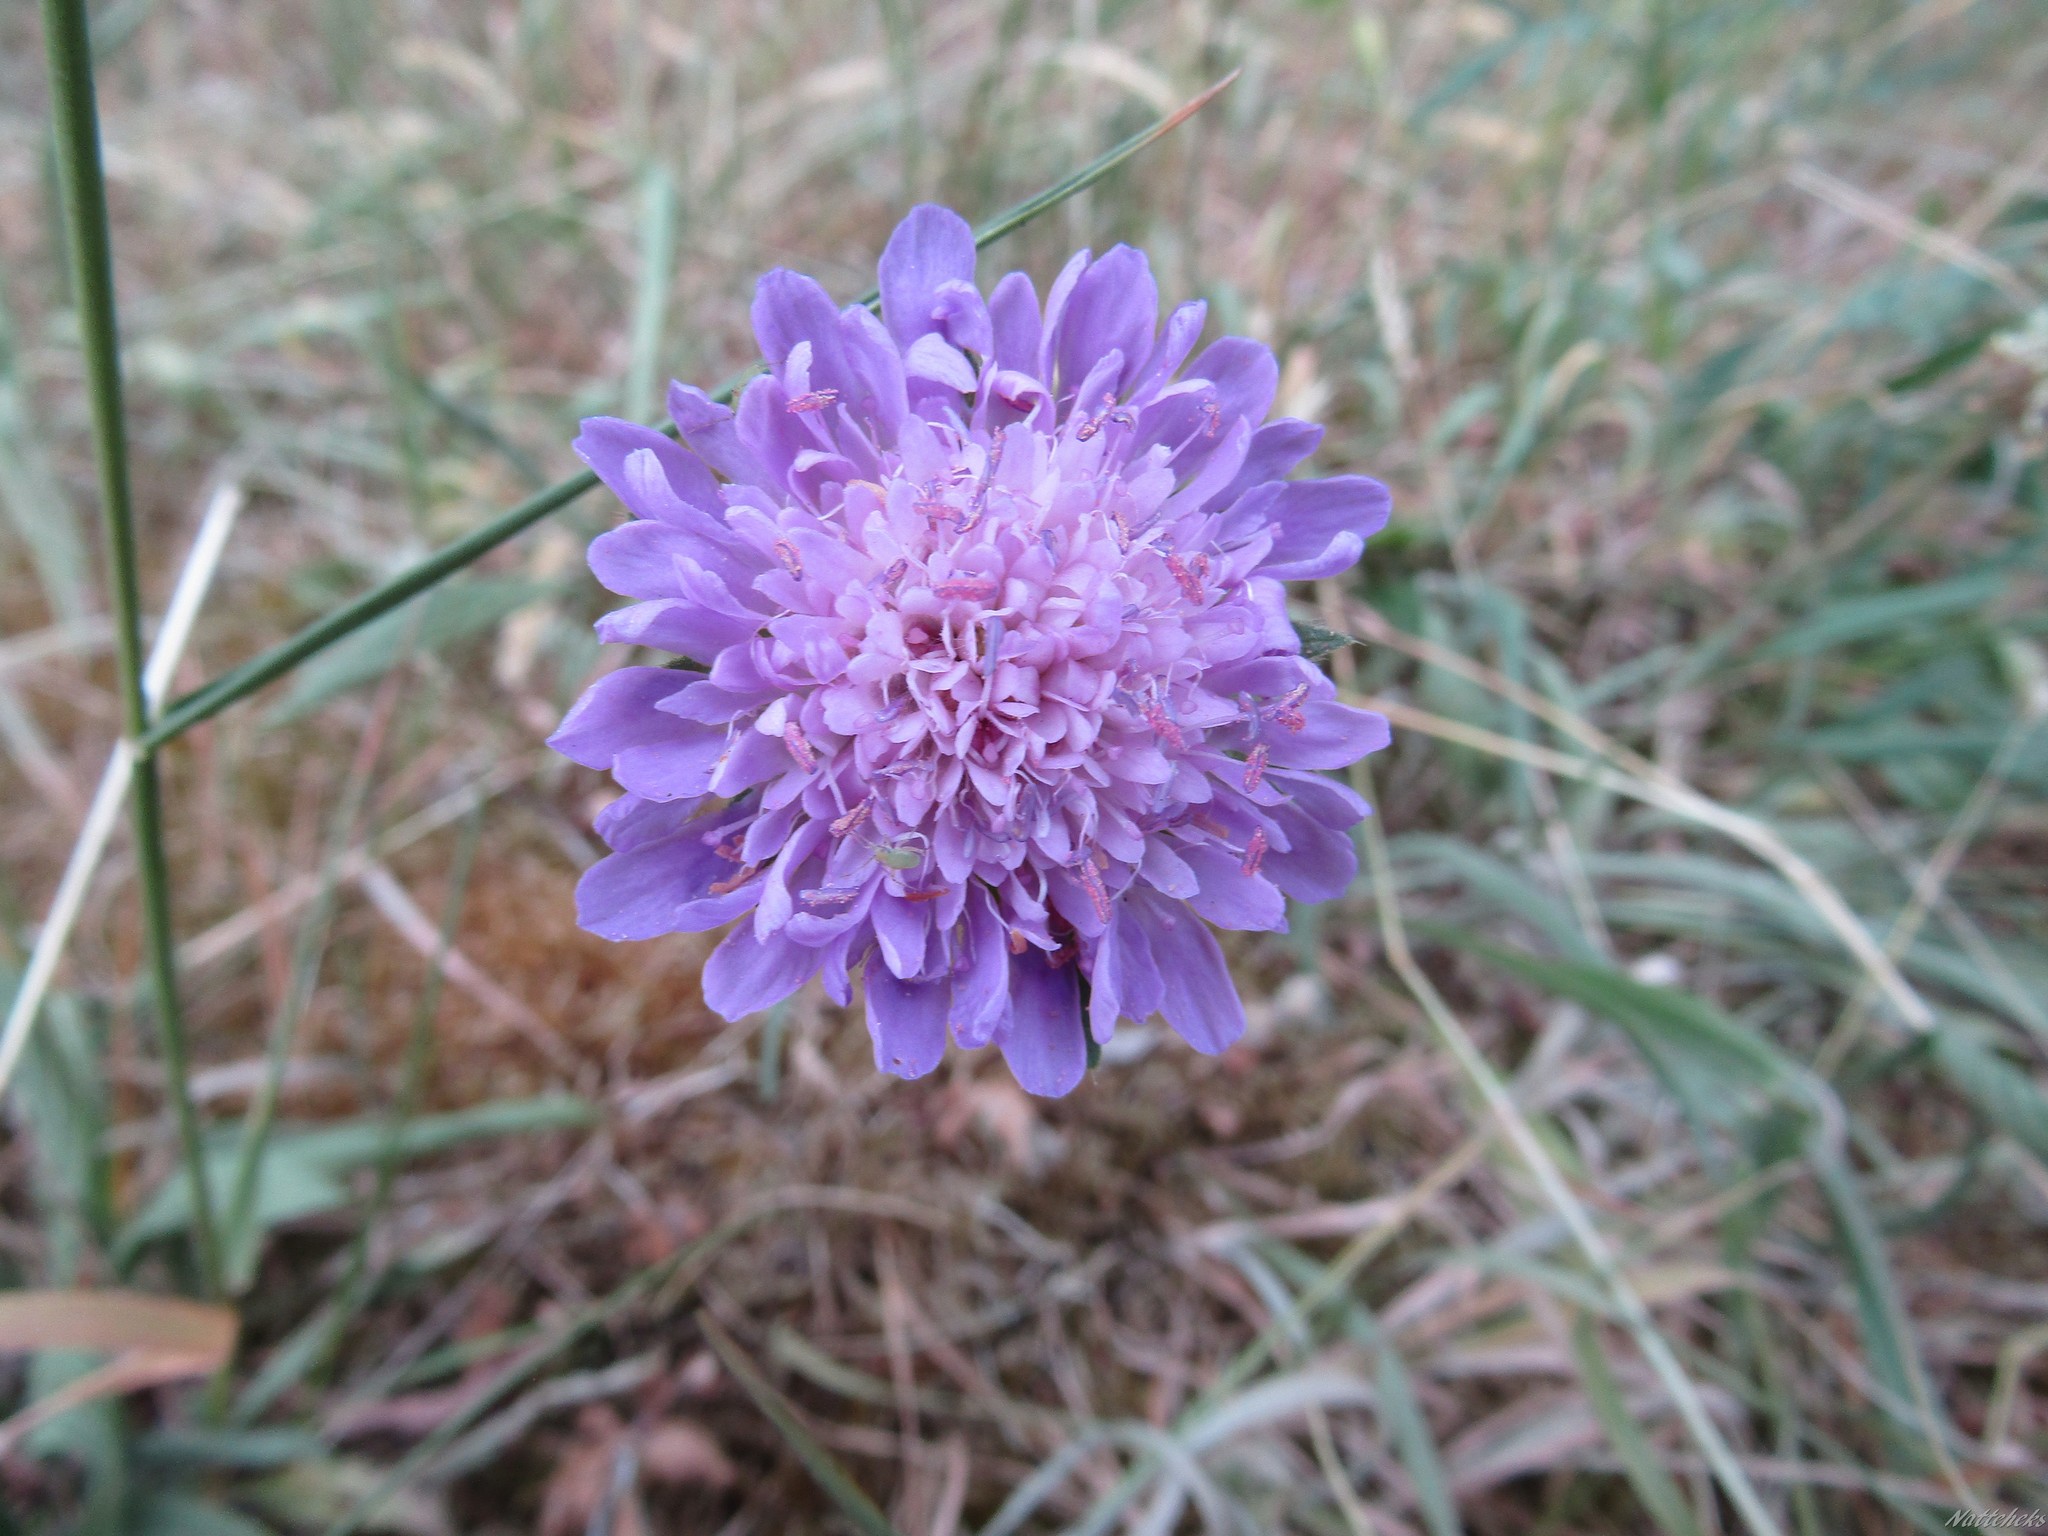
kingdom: Plantae
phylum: Tracheophyta
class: Magnoliopsida
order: Dipsacales
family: Caprifoliaceae
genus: Knautia
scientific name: Knautia arvensis
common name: Field scabiosa
